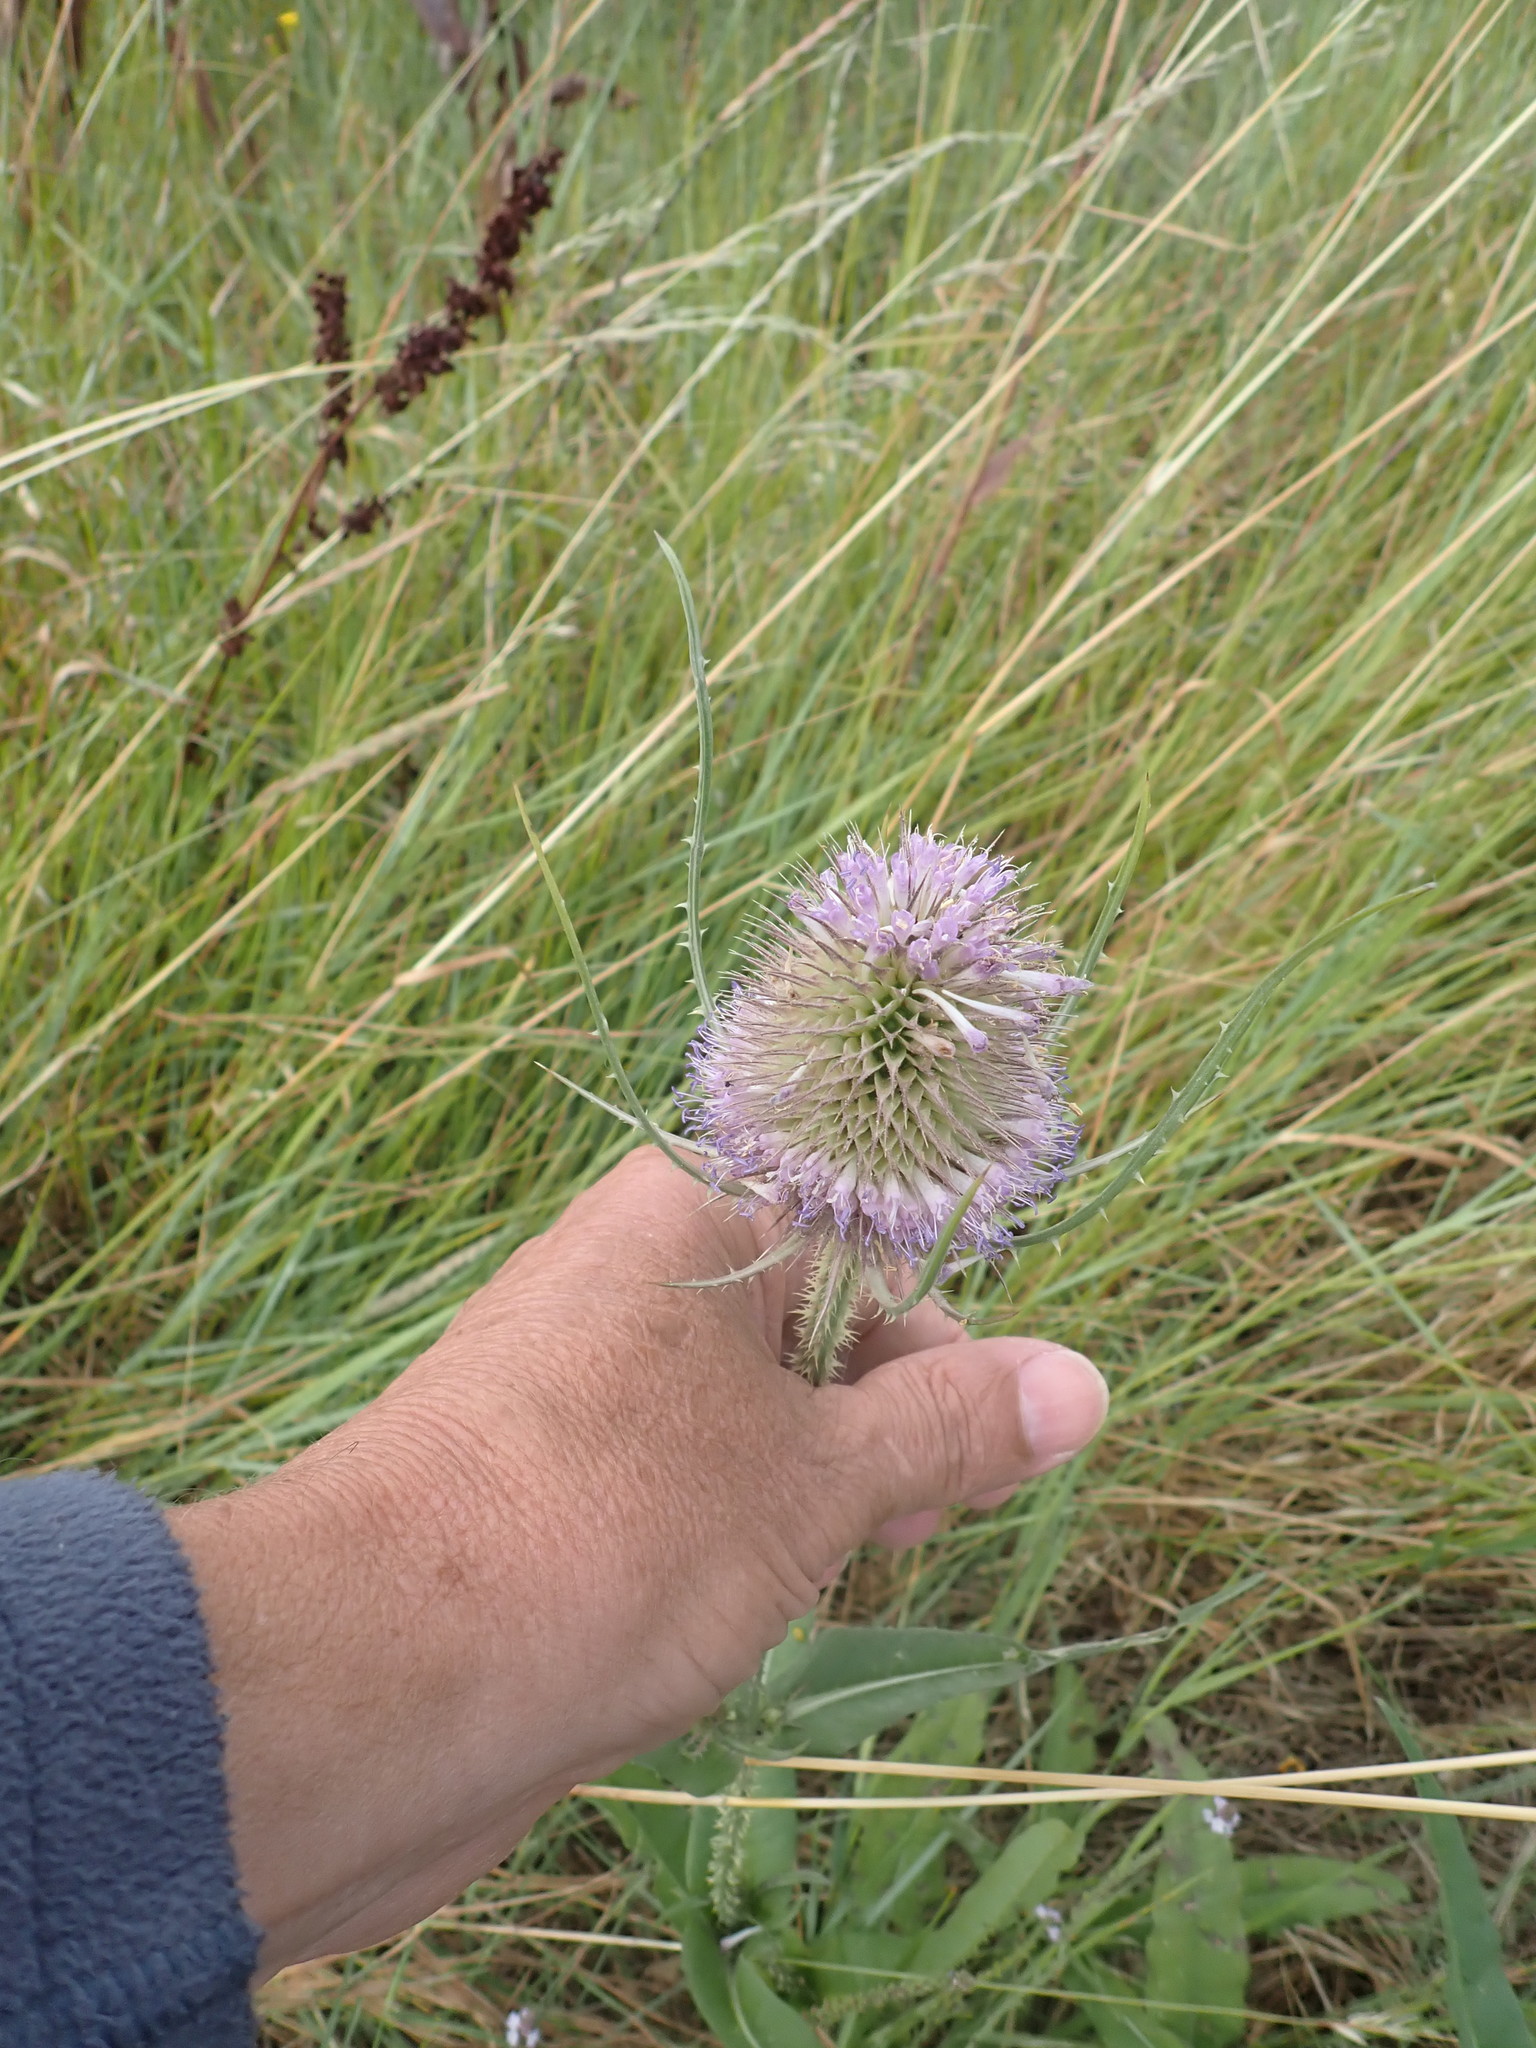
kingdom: Plantae
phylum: Tracheophyta
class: Magnoliopsida
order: Dipsacales
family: Caprifoliaceae
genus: Dipsacus
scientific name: Dipsacus fullonum
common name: Teasel
